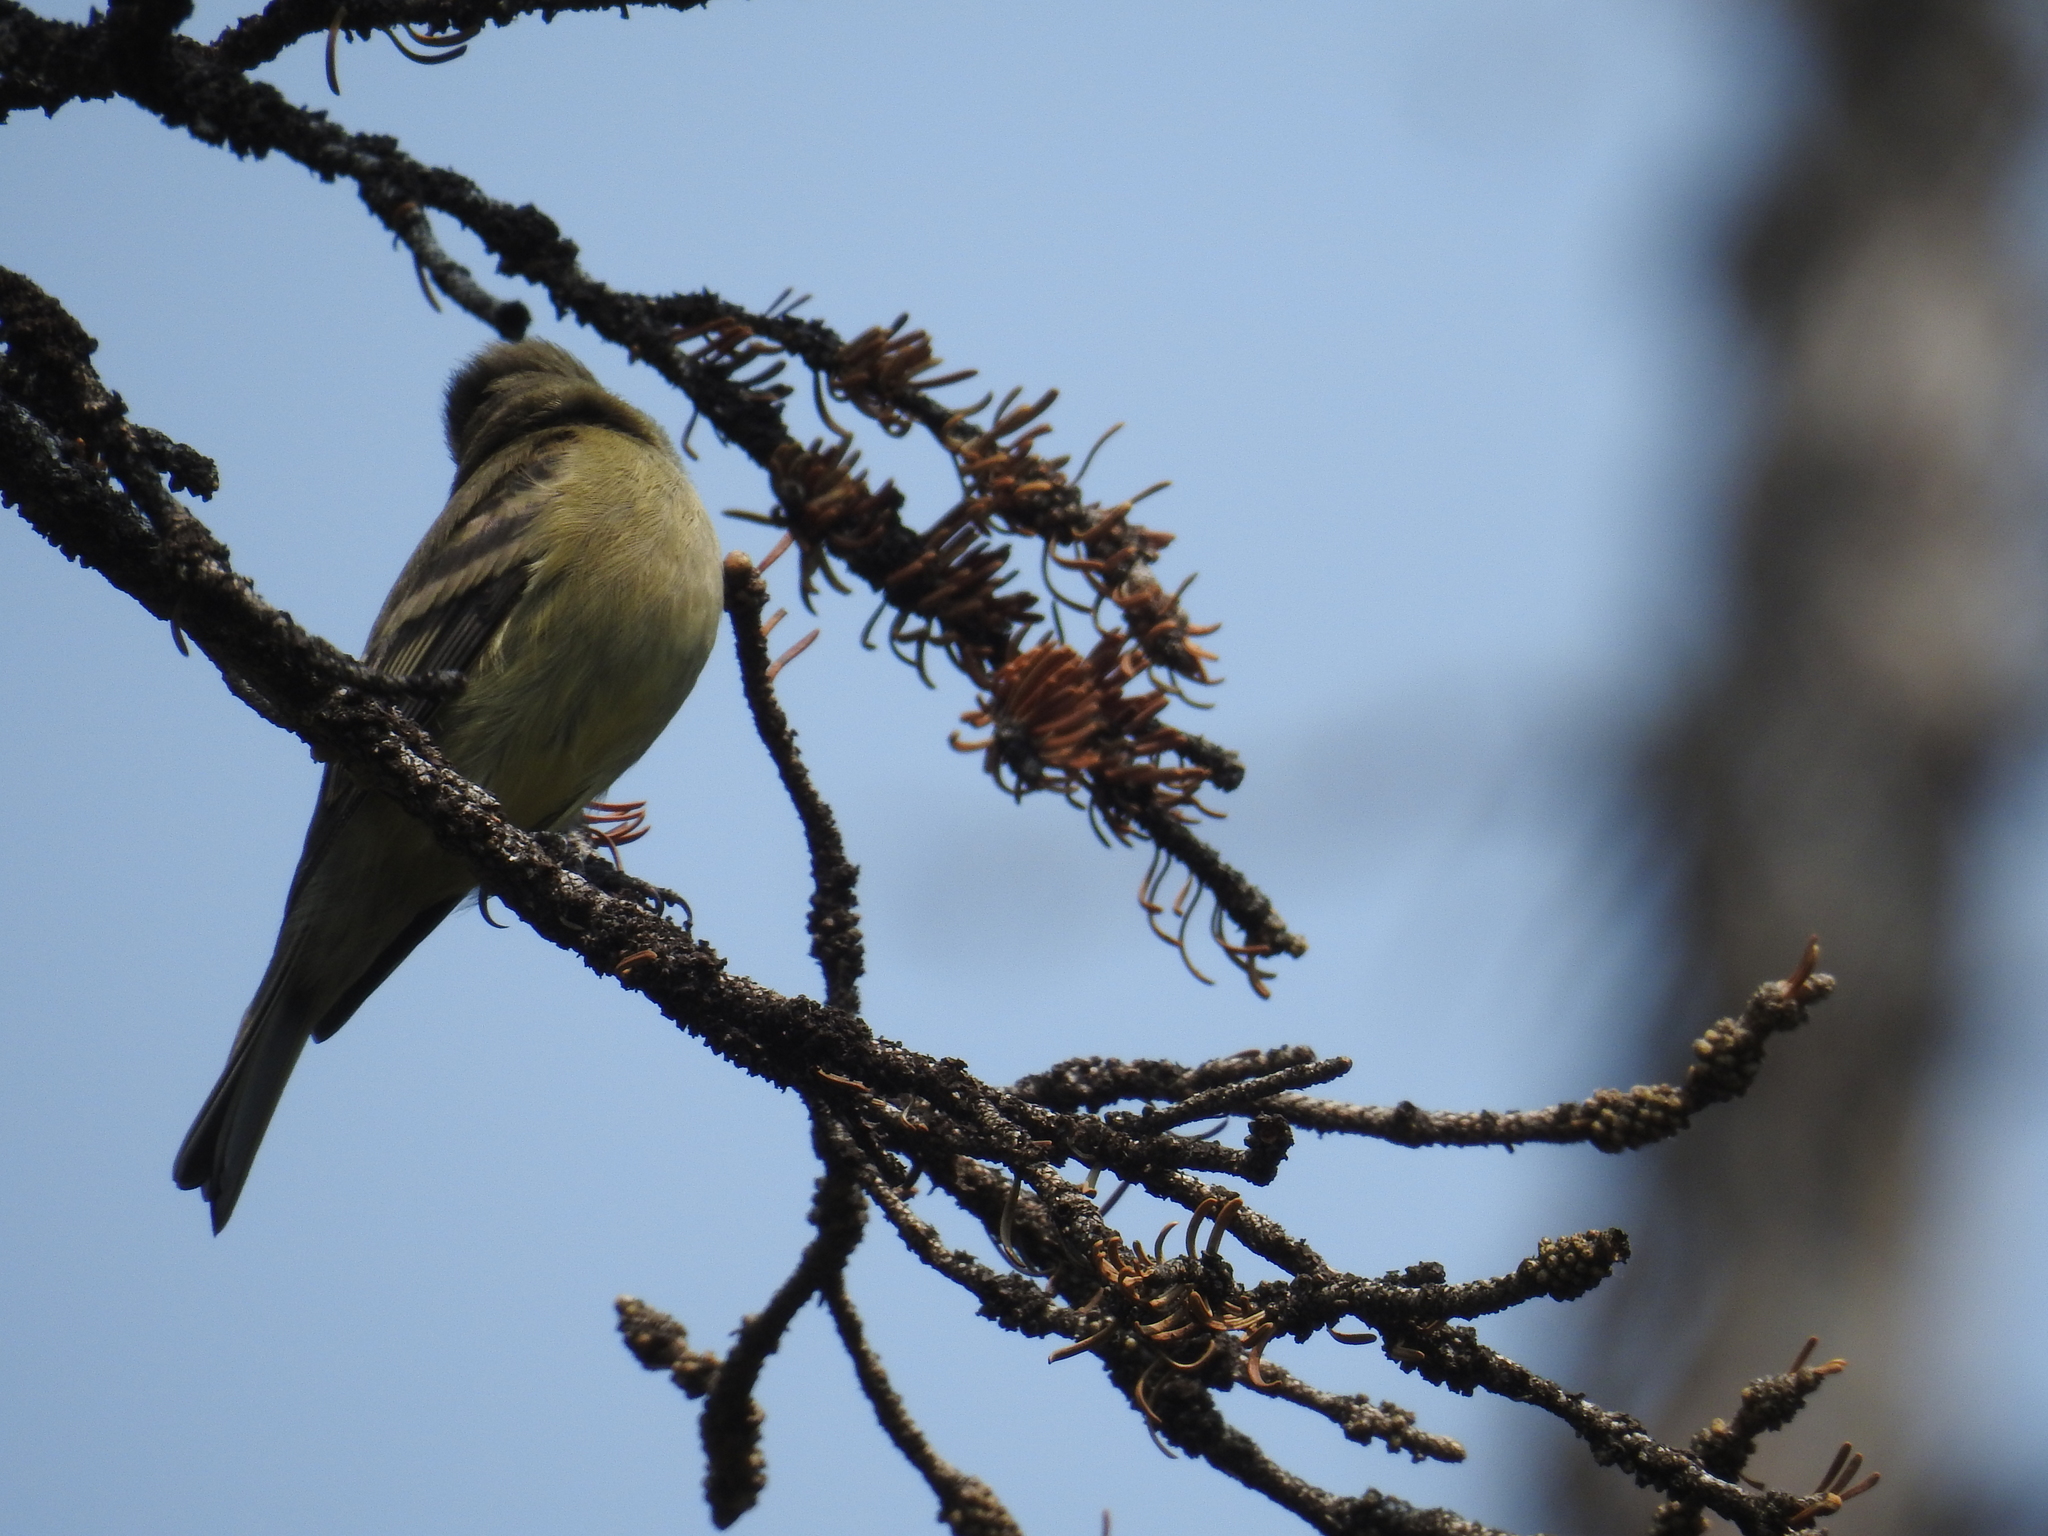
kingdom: Animalia
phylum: Chordata
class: Aves
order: Passeriformes
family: Tyrannidae
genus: Empidonax
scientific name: Empidonax difficilis
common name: Pacific-slope flycatcher
